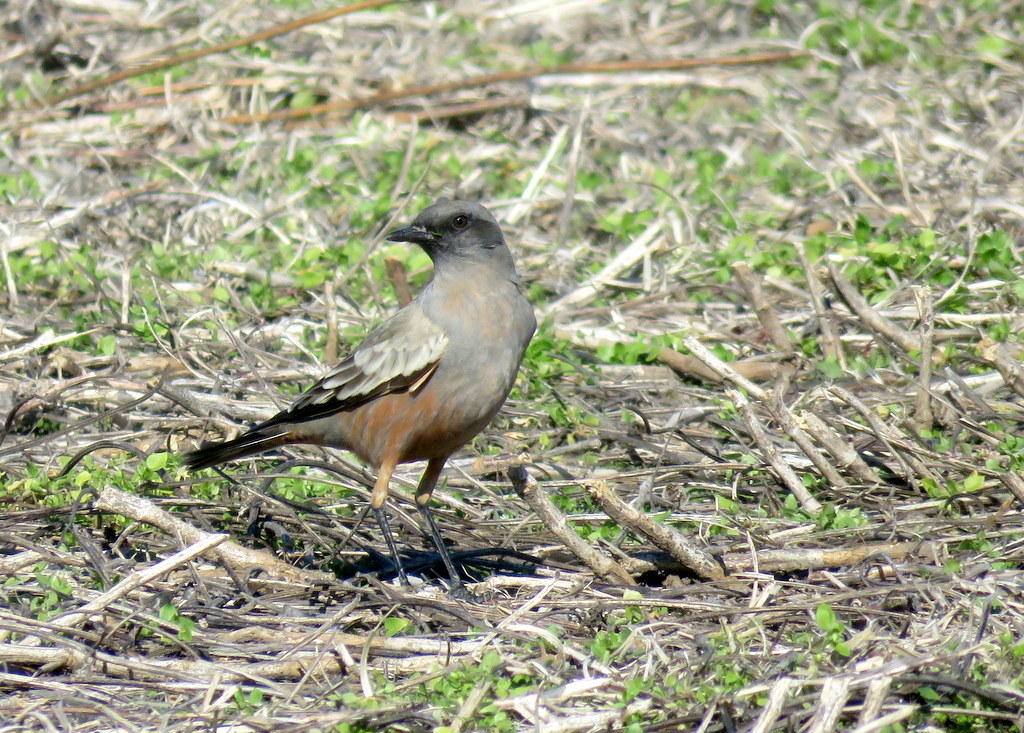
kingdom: Animalia
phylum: Chordata
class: Aves
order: Passeriformes
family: Tyrannidae
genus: Neoxolmis
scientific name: Neoxolmis rufiventris
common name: Chocolate-vented tyrant
